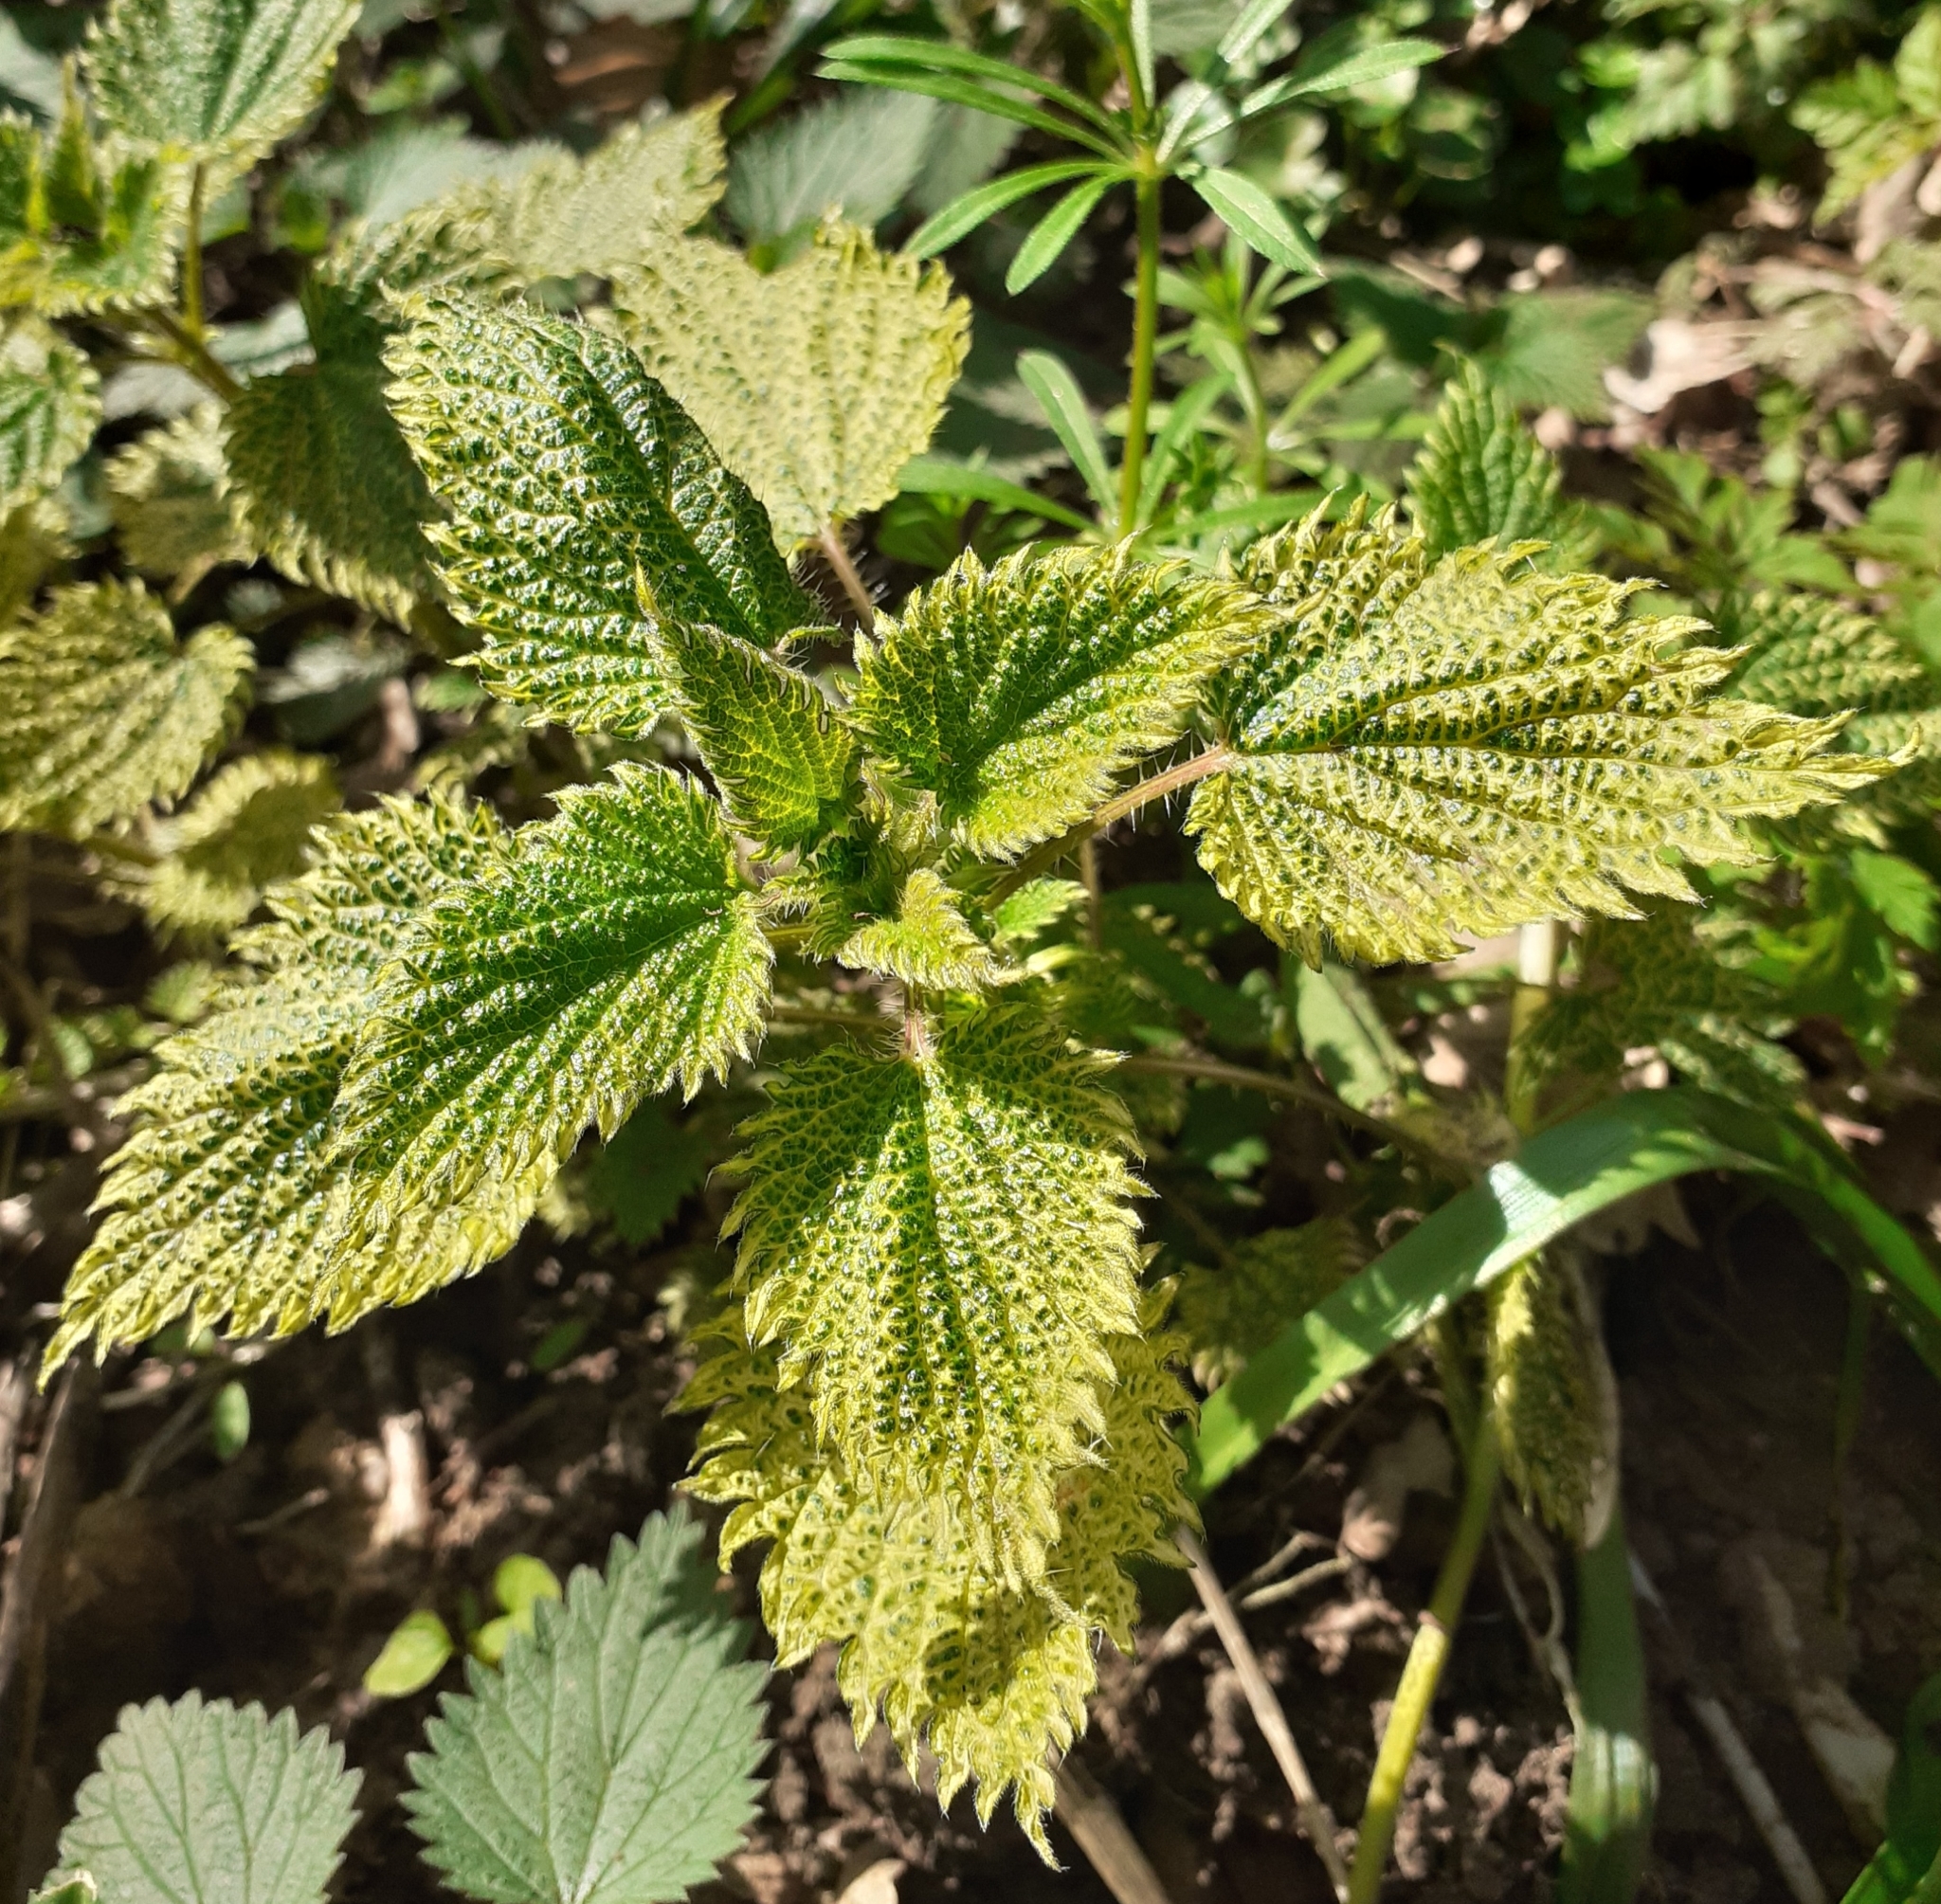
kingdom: Plantae
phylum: Tracheophyta
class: Magnoliopsida
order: Rosales
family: Urticaceae
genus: Urtica
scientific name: Urtica dioica
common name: Common nettle
